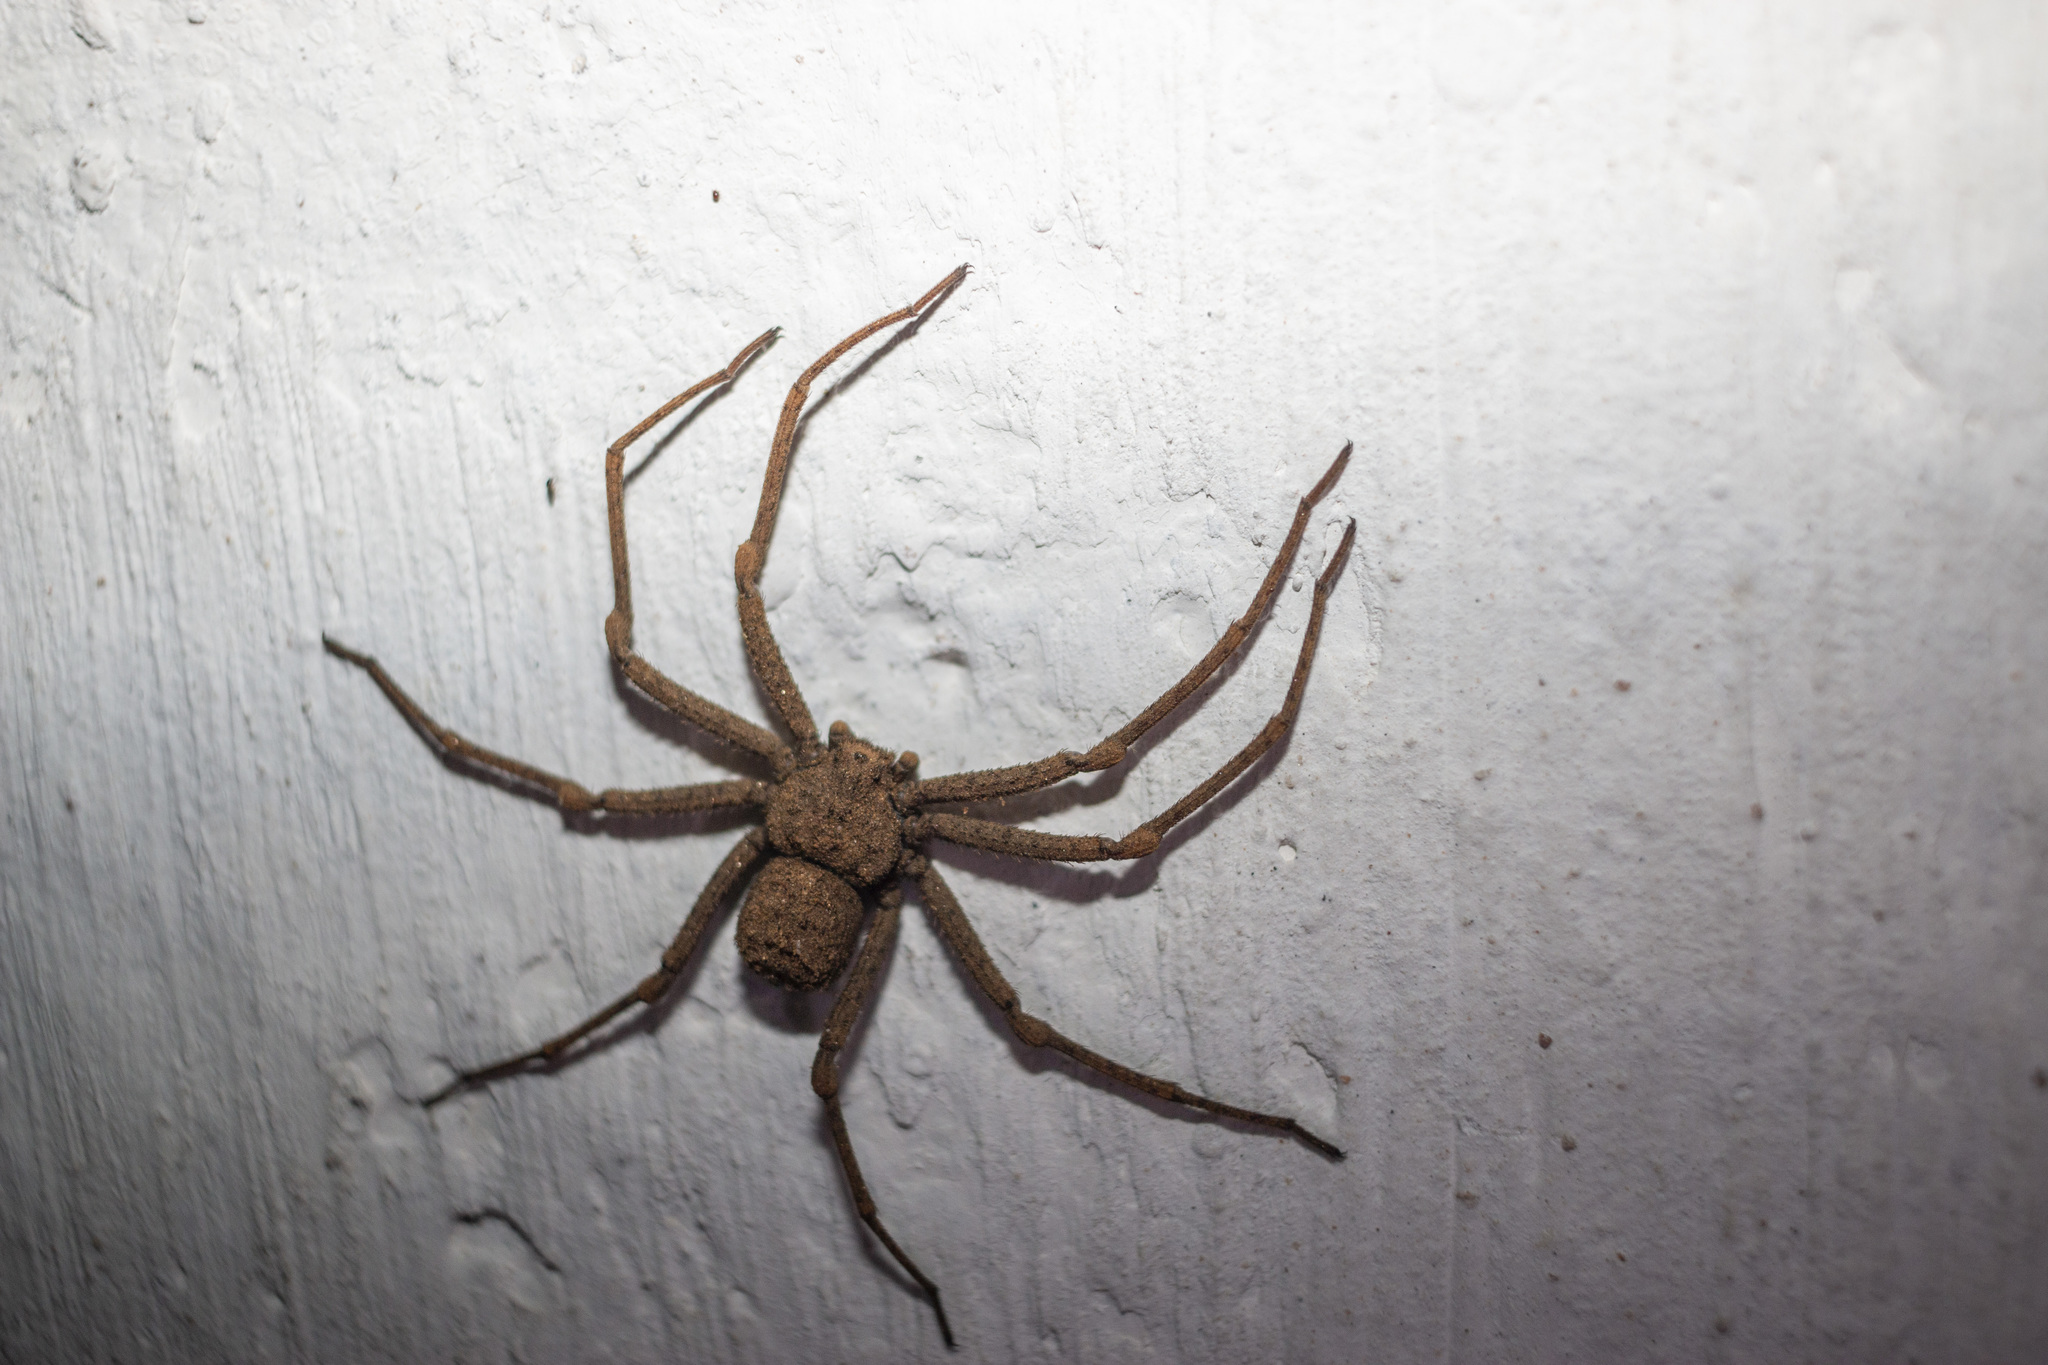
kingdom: Animalia
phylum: Arthropoda
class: Arachnida
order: Araneae
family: Sicariidae
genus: Sicarius
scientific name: Sicarius tropicus
